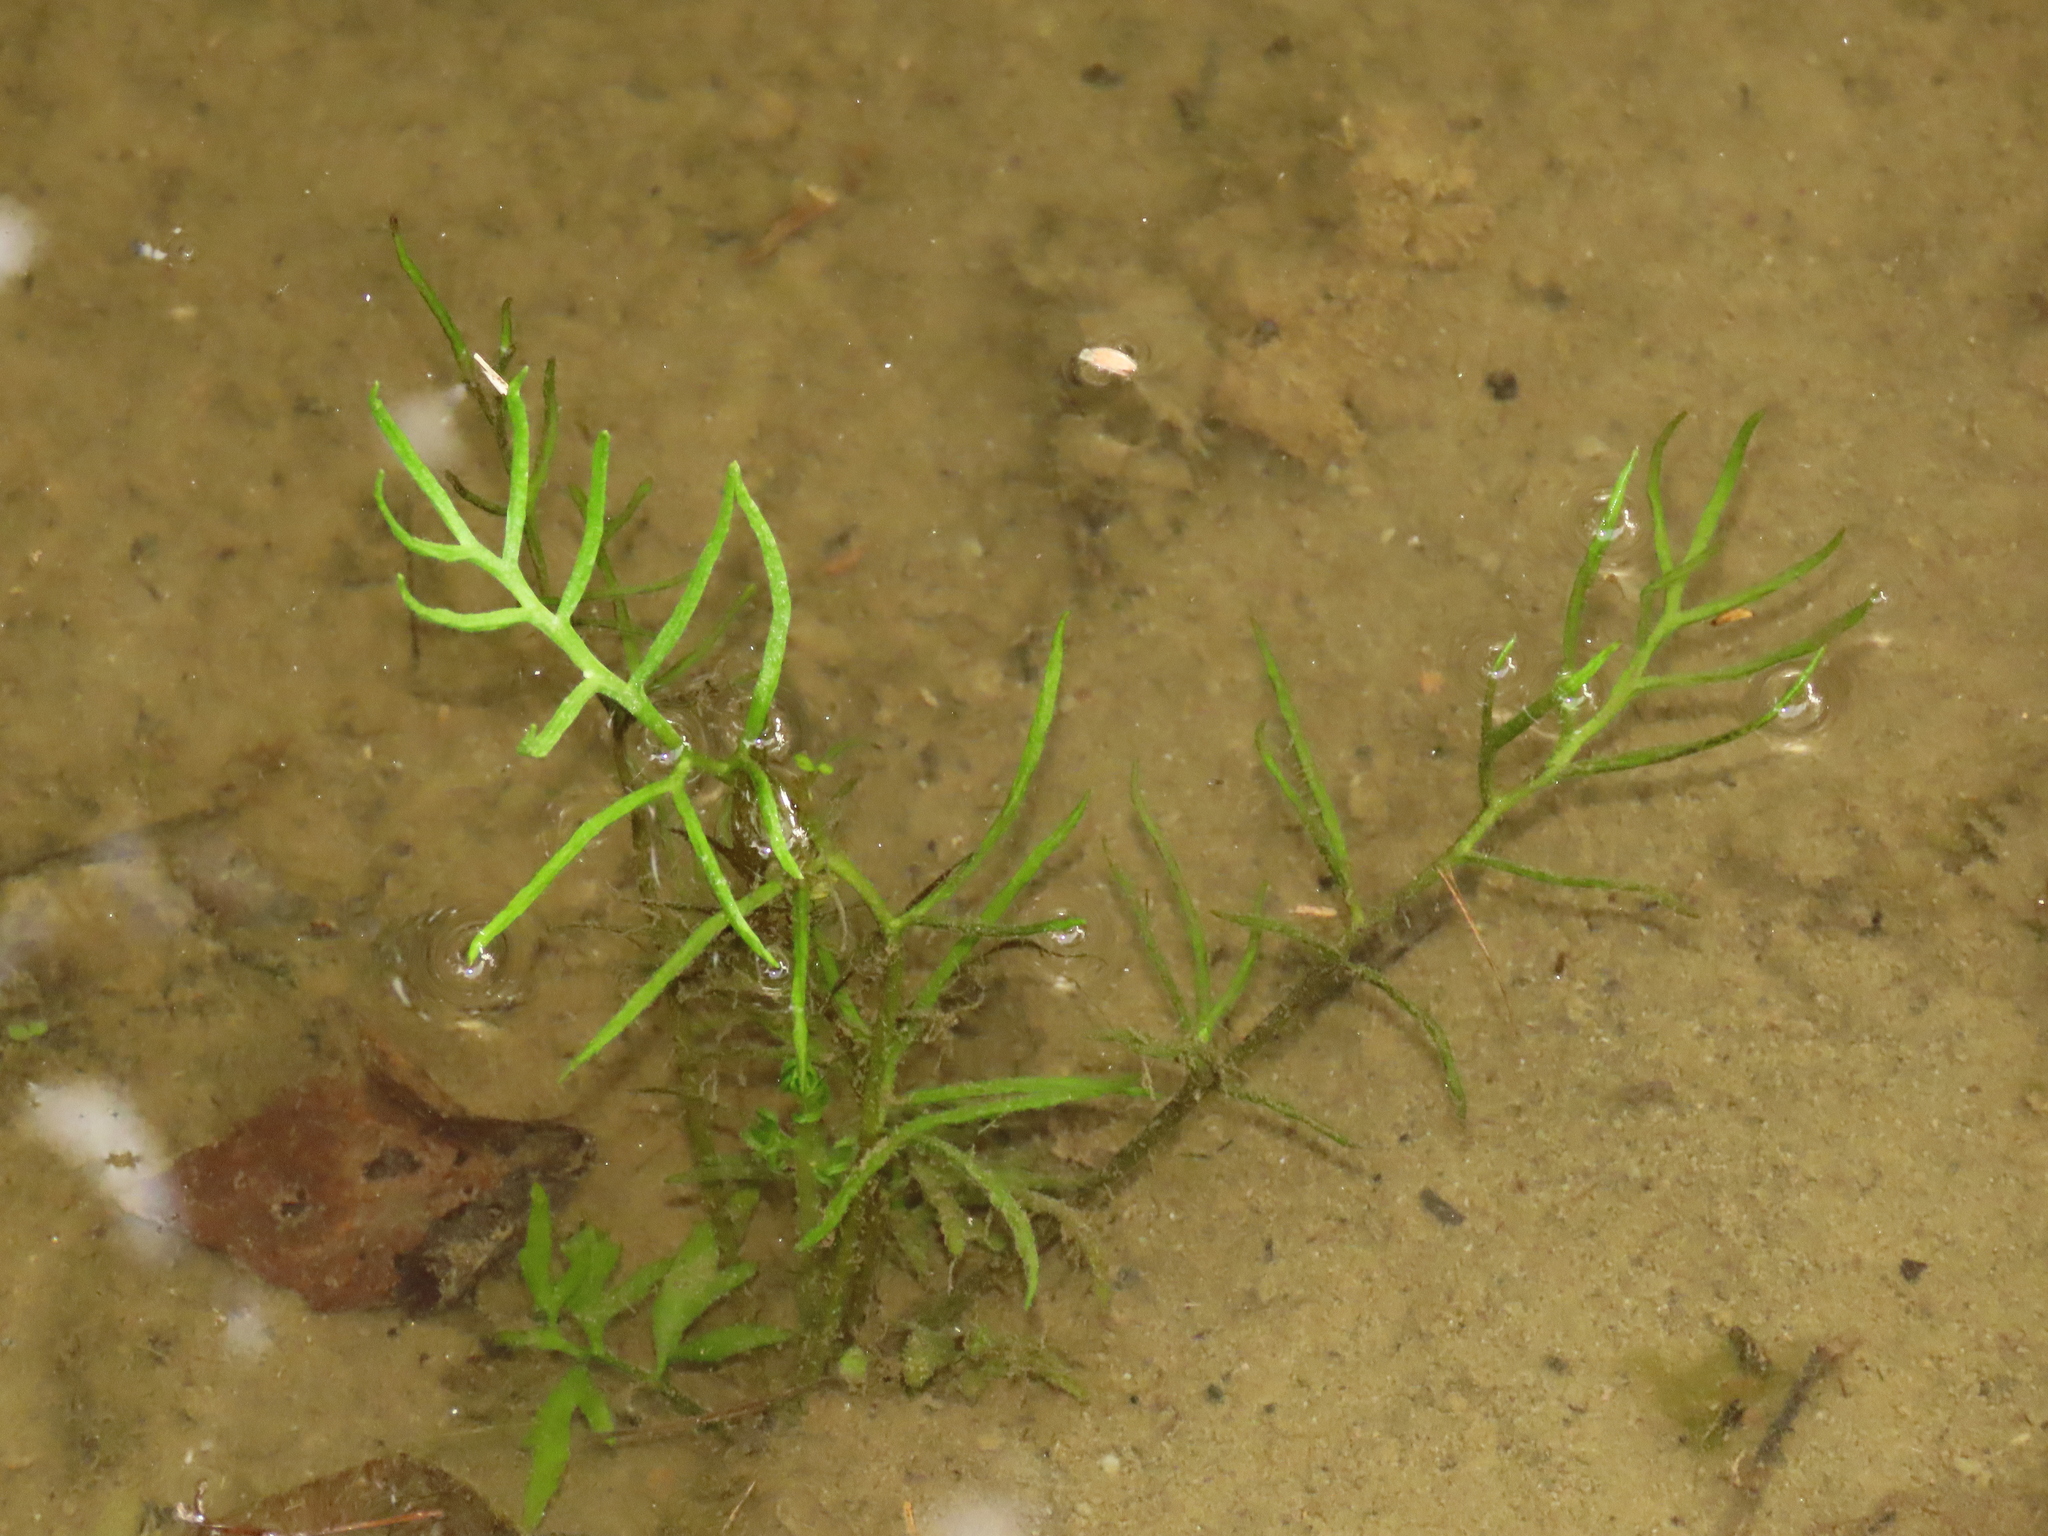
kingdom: Plantae
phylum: Tracheophyta
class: Polypodiopsida
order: Polypodiales
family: Pteridaceae
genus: Ceratopteris
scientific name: Ceratopteris thalictroides
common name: Water fern
